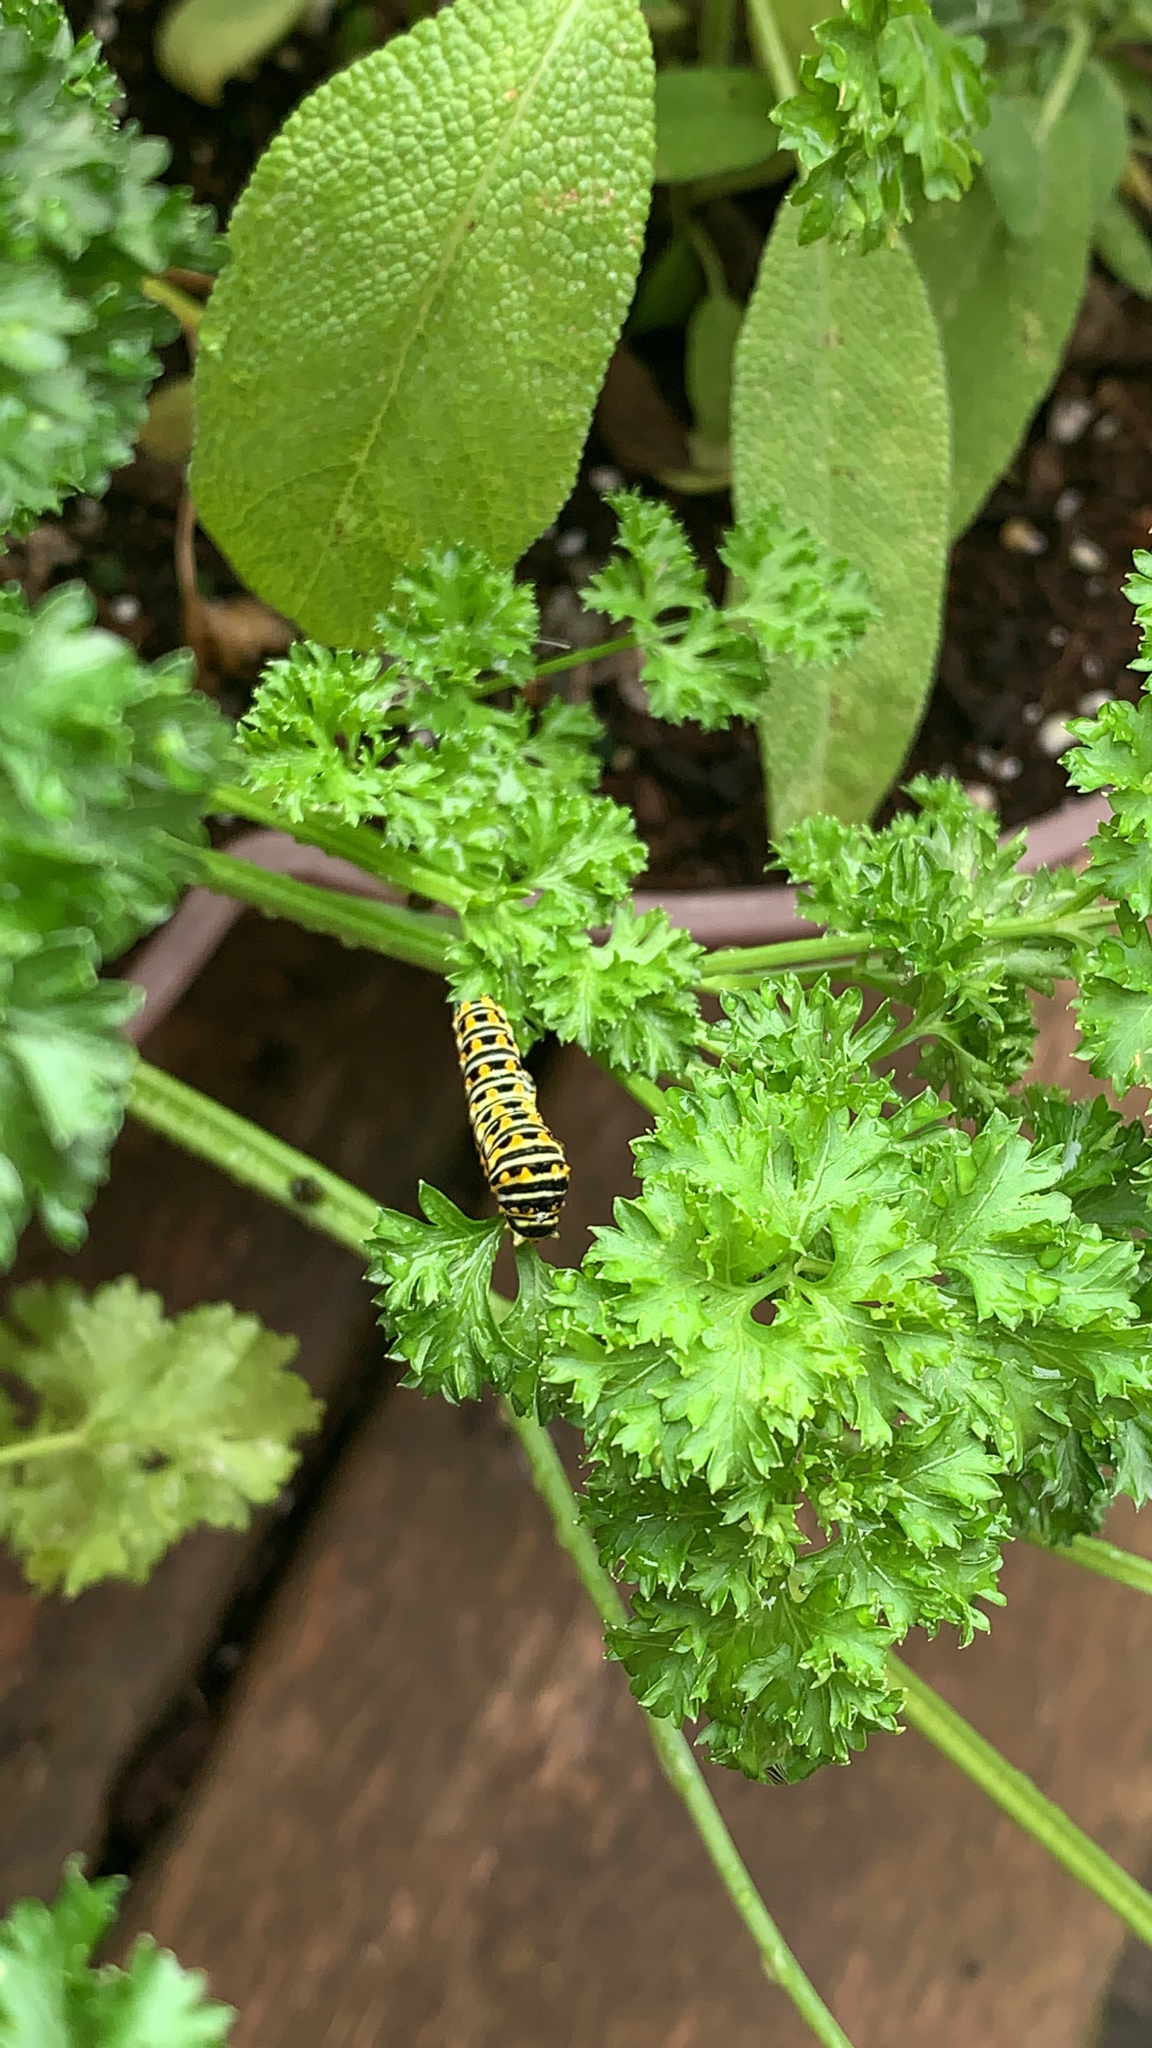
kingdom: Animalia
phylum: Arthropoda
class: Insecta
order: Lepidoptera
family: Papilionidae
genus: Papilio
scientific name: Papilio polyxenes
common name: Black swallowtail
